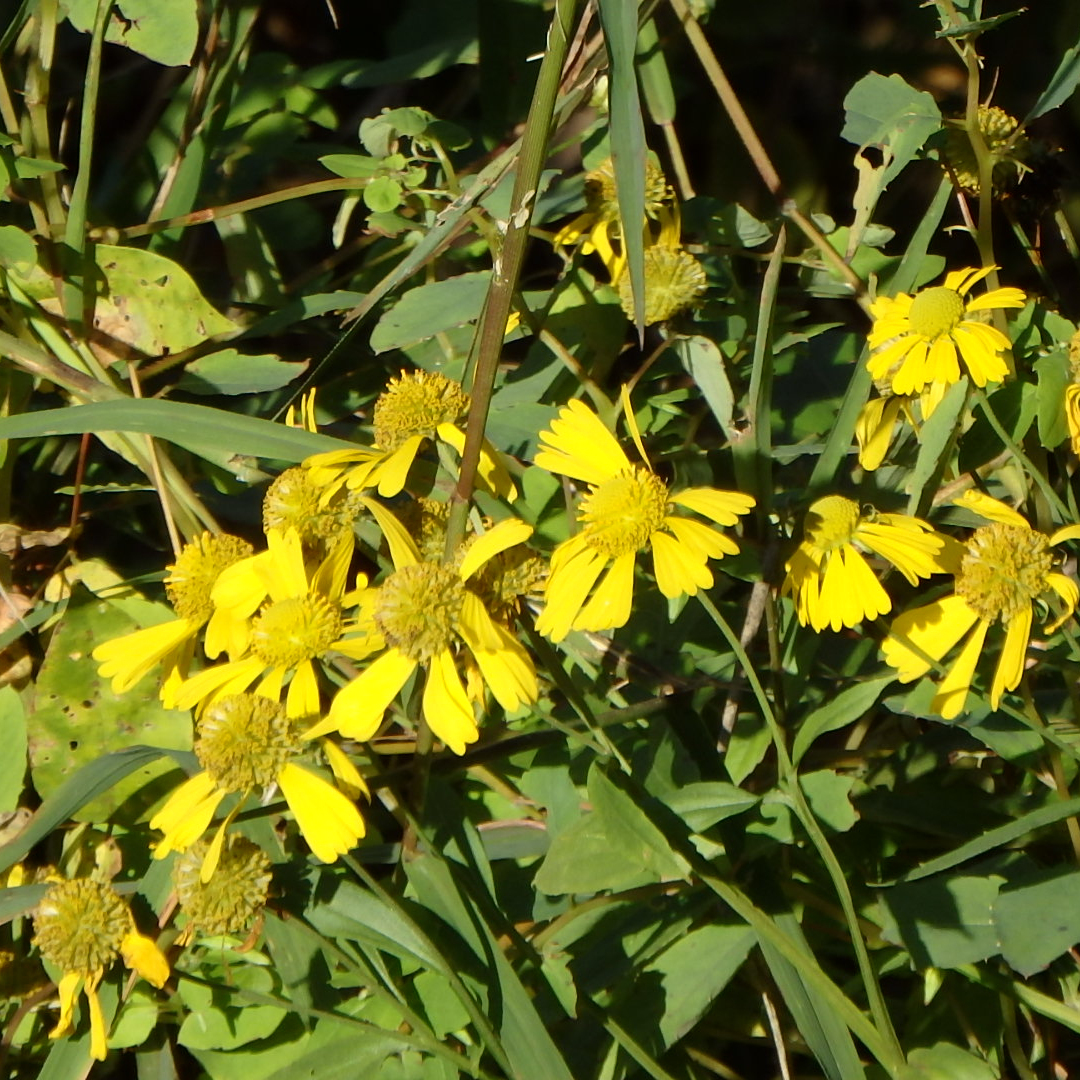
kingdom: Plantae
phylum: Tracheophyta
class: Magnoliopsida
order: Asterales
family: Asteraceae
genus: Helenium
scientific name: Helenium autumnale
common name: Sneezeweed
